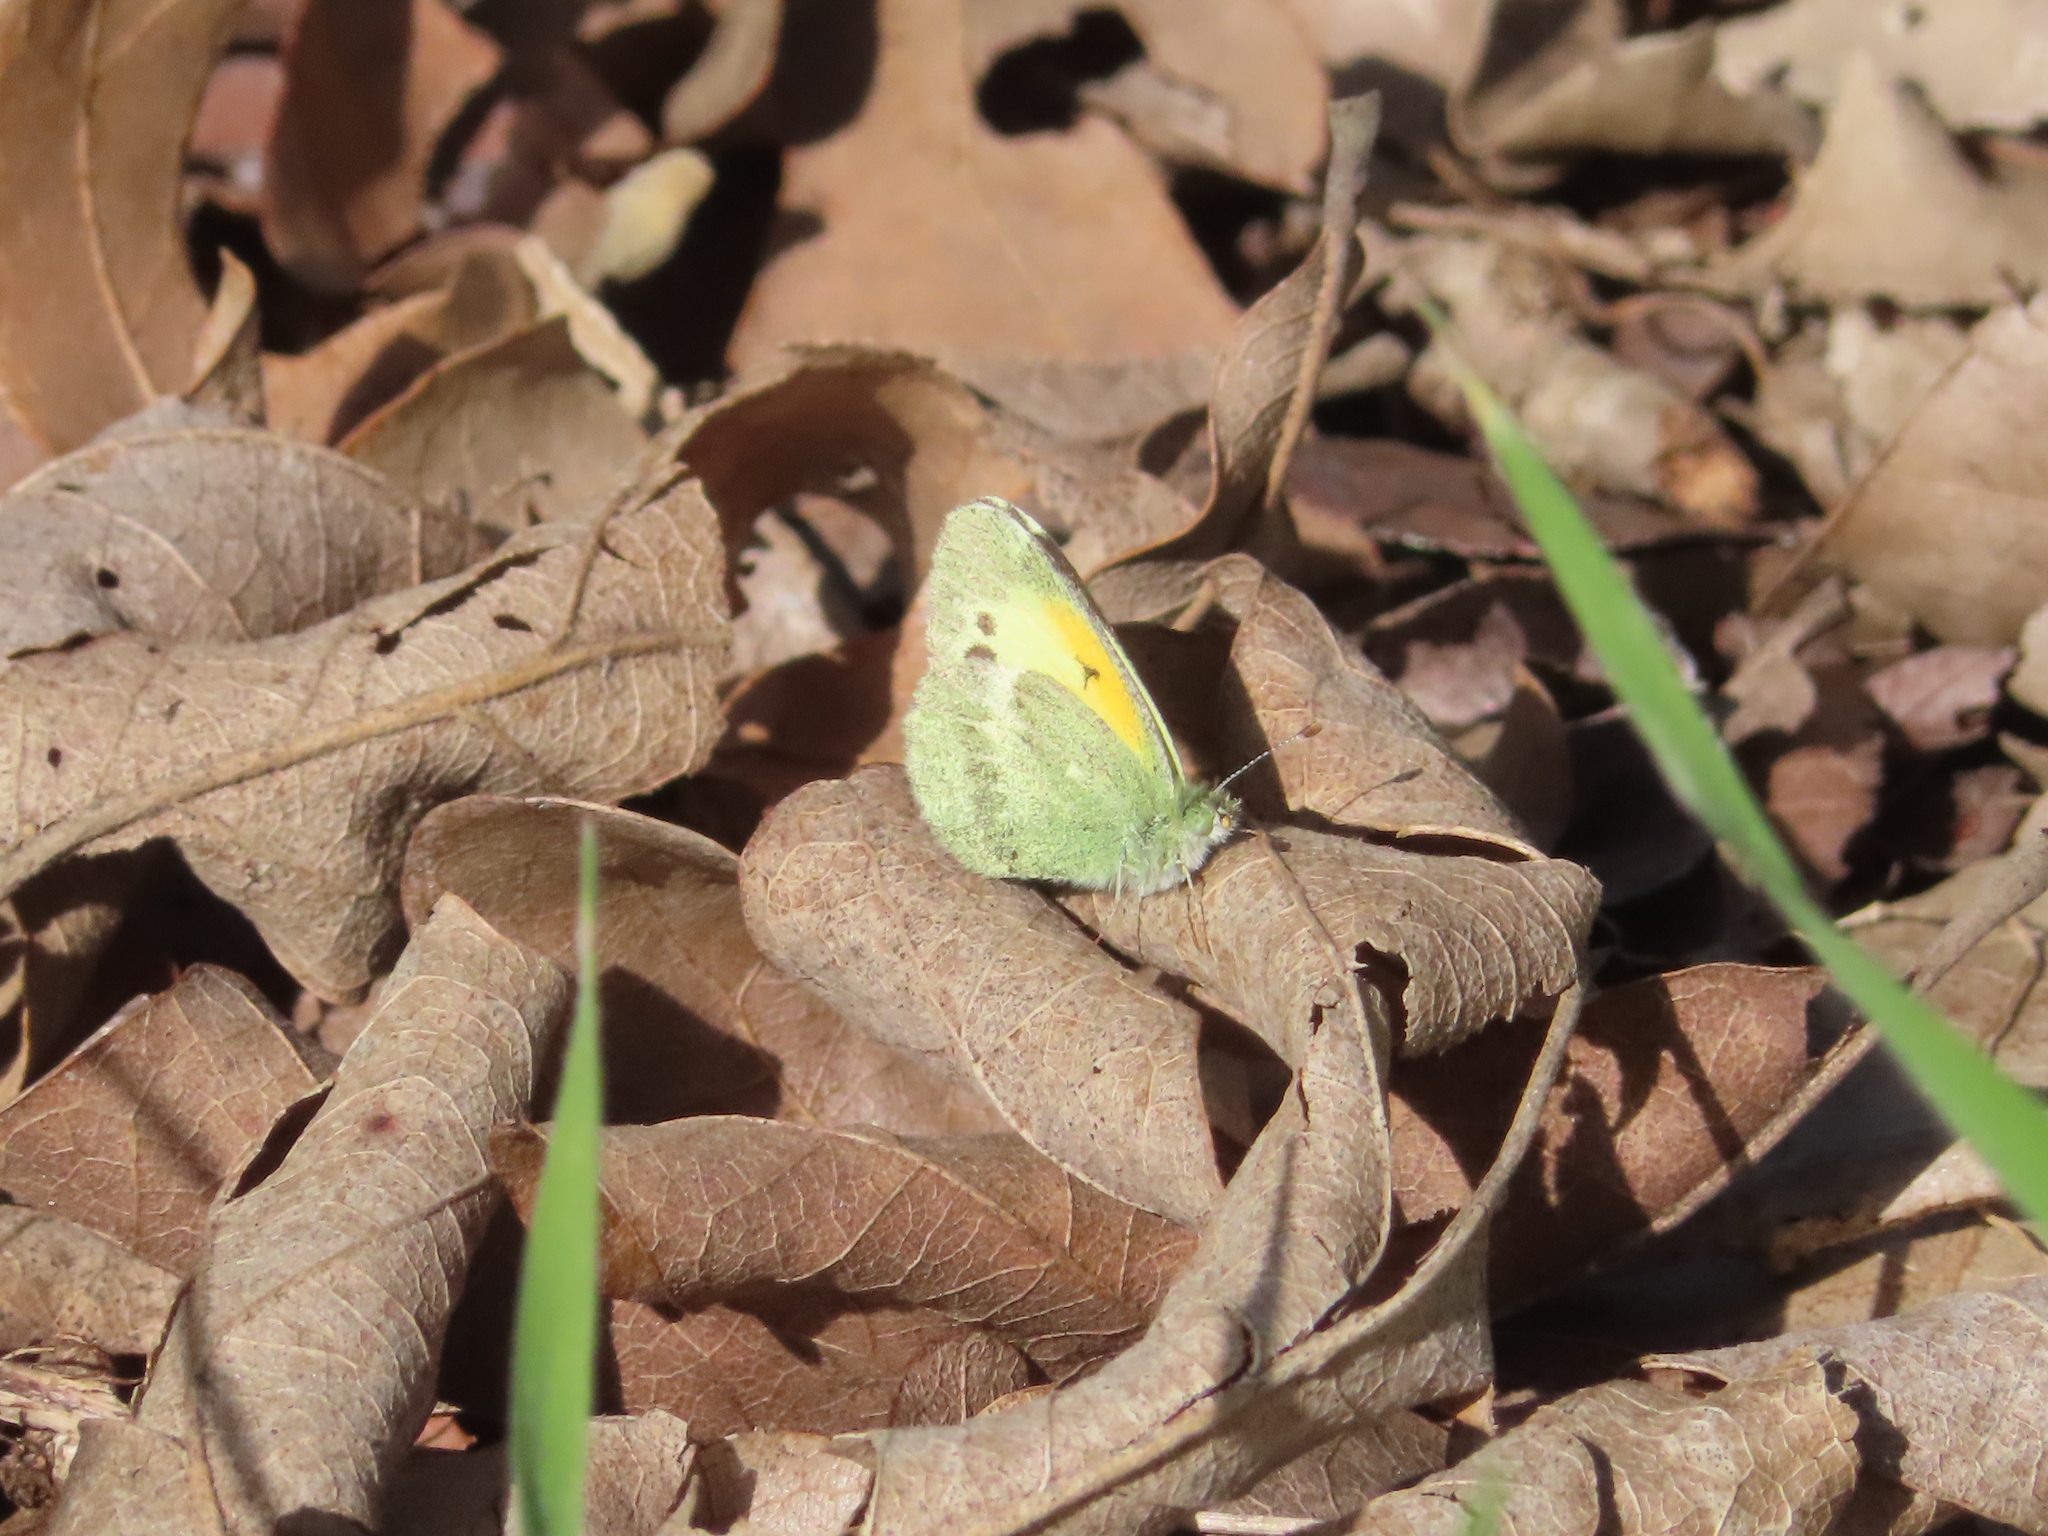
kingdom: Animalia
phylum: Arthropoda
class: Insecta
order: Lepidoptera
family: Pieridae
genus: Nathalis
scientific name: Nathalis iole
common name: Dainty sulphur
